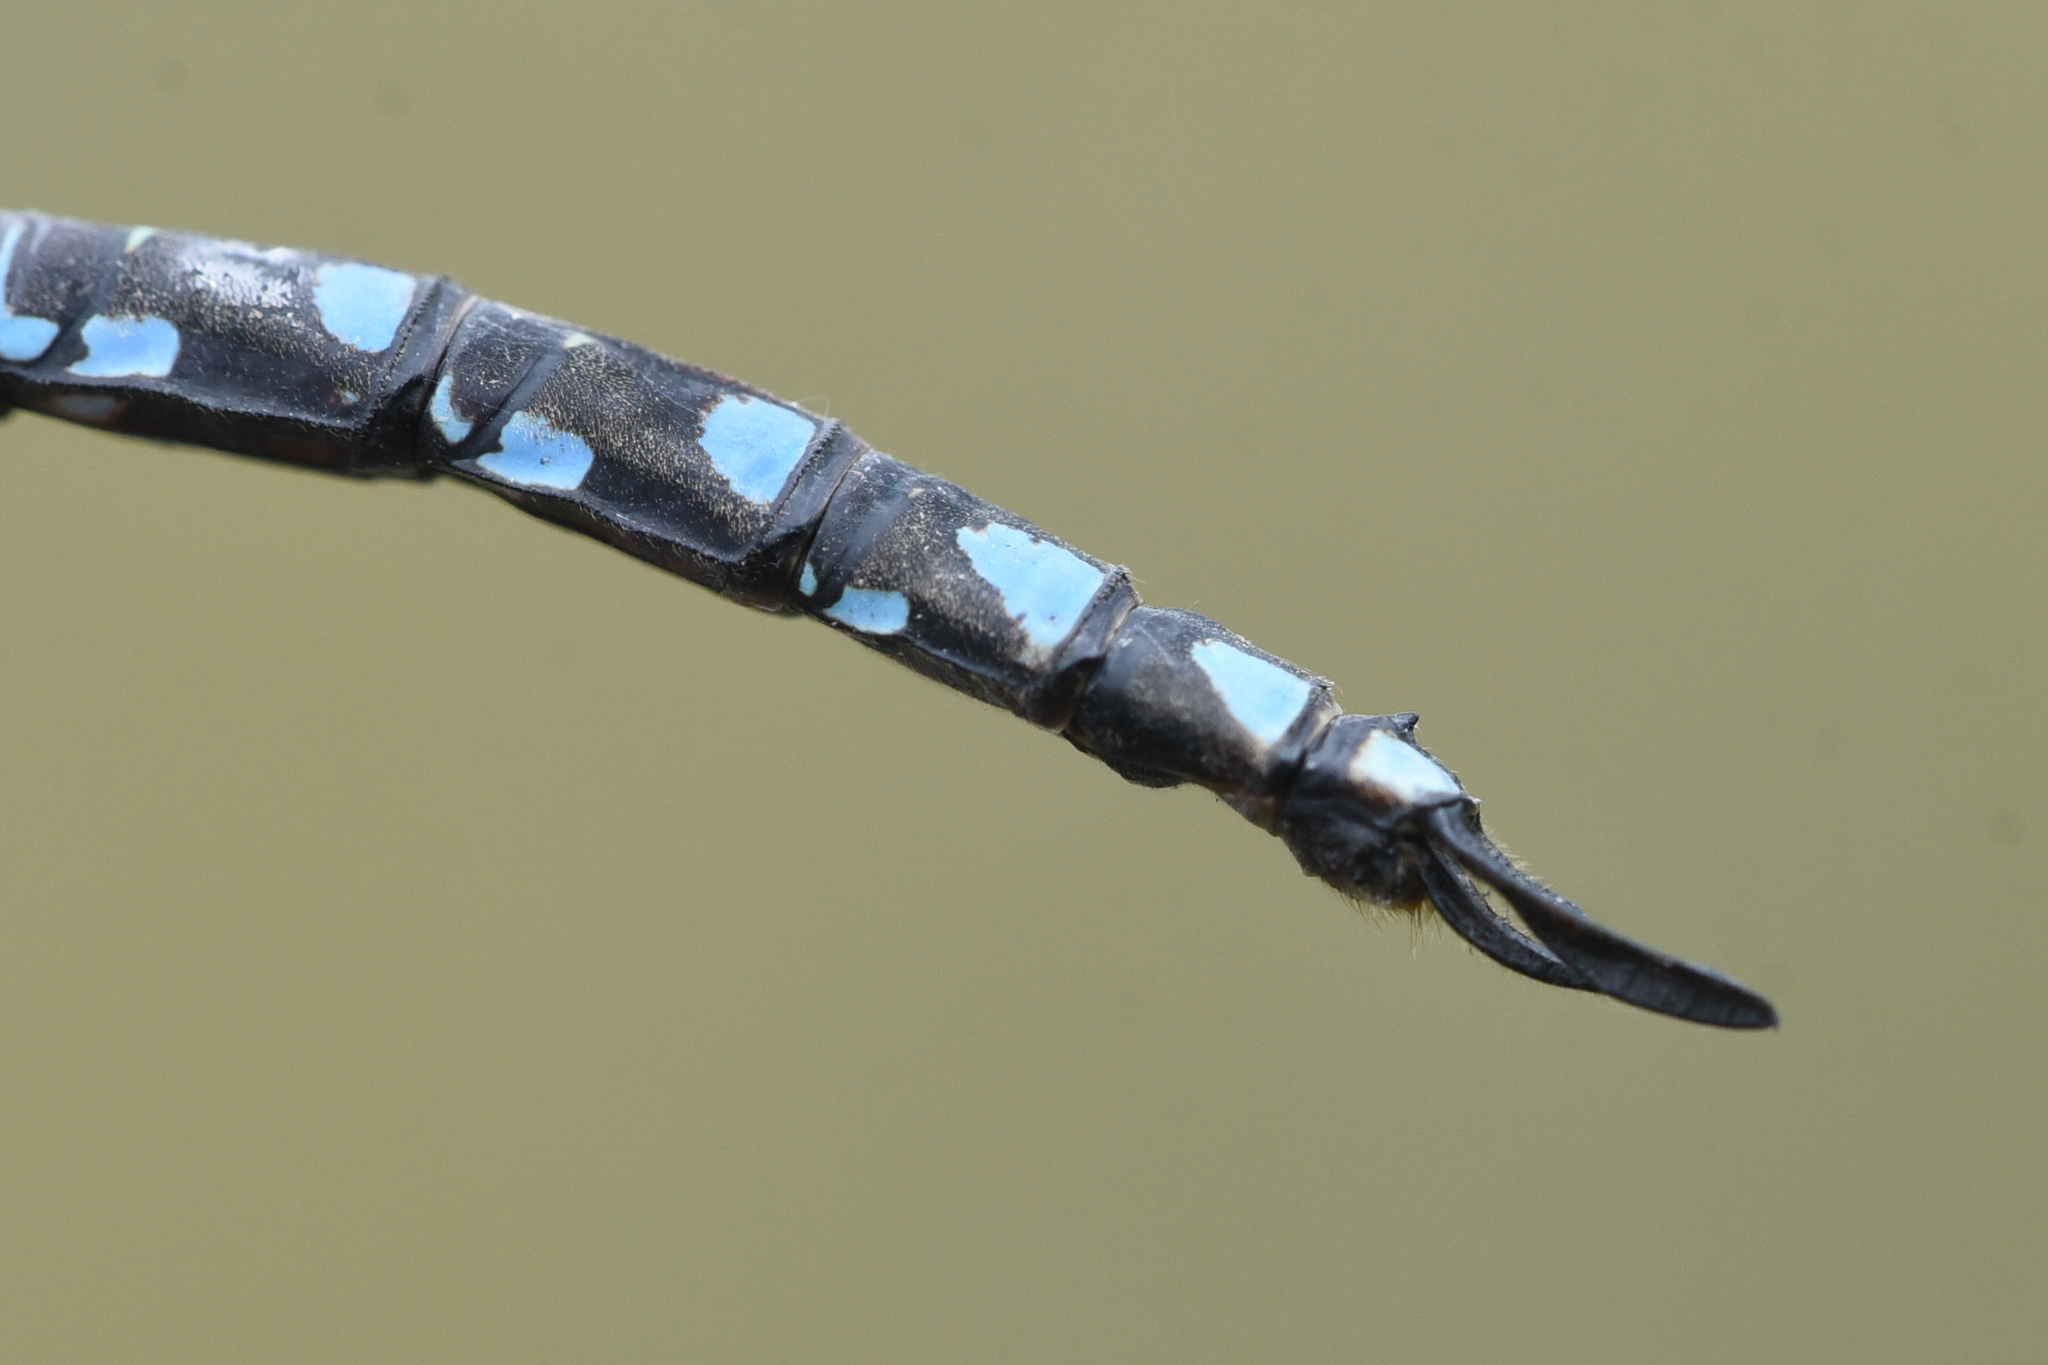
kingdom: Animalia
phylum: Arthropoda
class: Insecta
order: Odonata
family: Aeshnidae
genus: Aeshna
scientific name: Aeshna canadensis
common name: Canada darner
